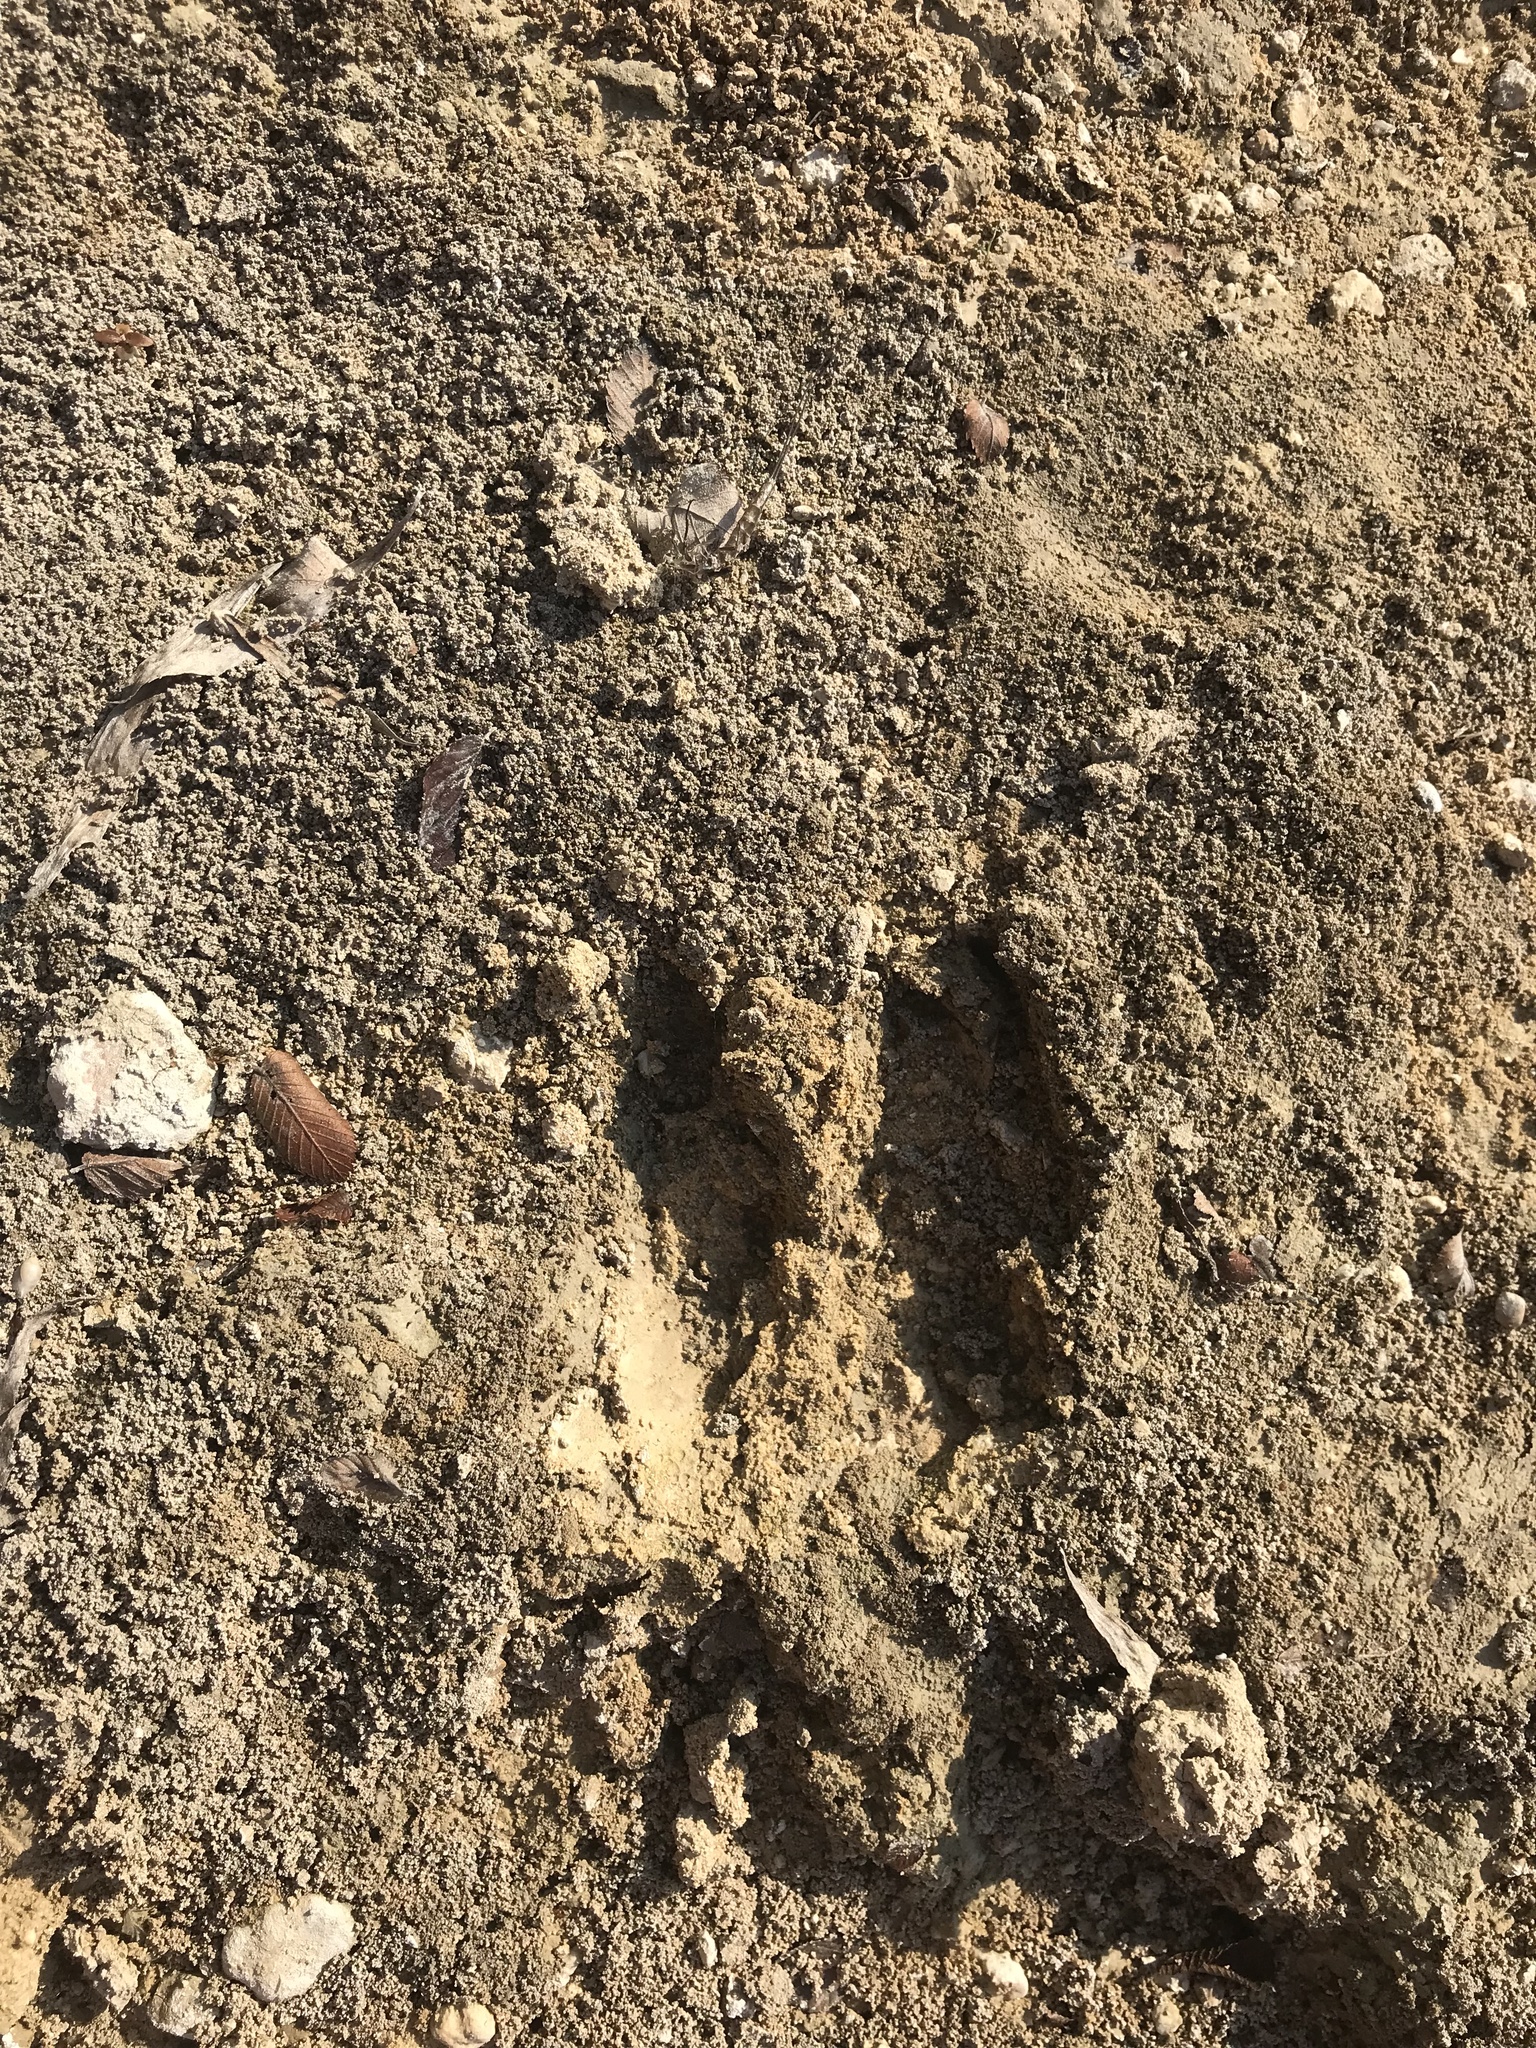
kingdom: Animalia
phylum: Chordata
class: Mammalia
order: Artiodactyla
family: Cervidae
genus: Odocoileus
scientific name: Odocoileus virginianus
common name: White-tailed deer
